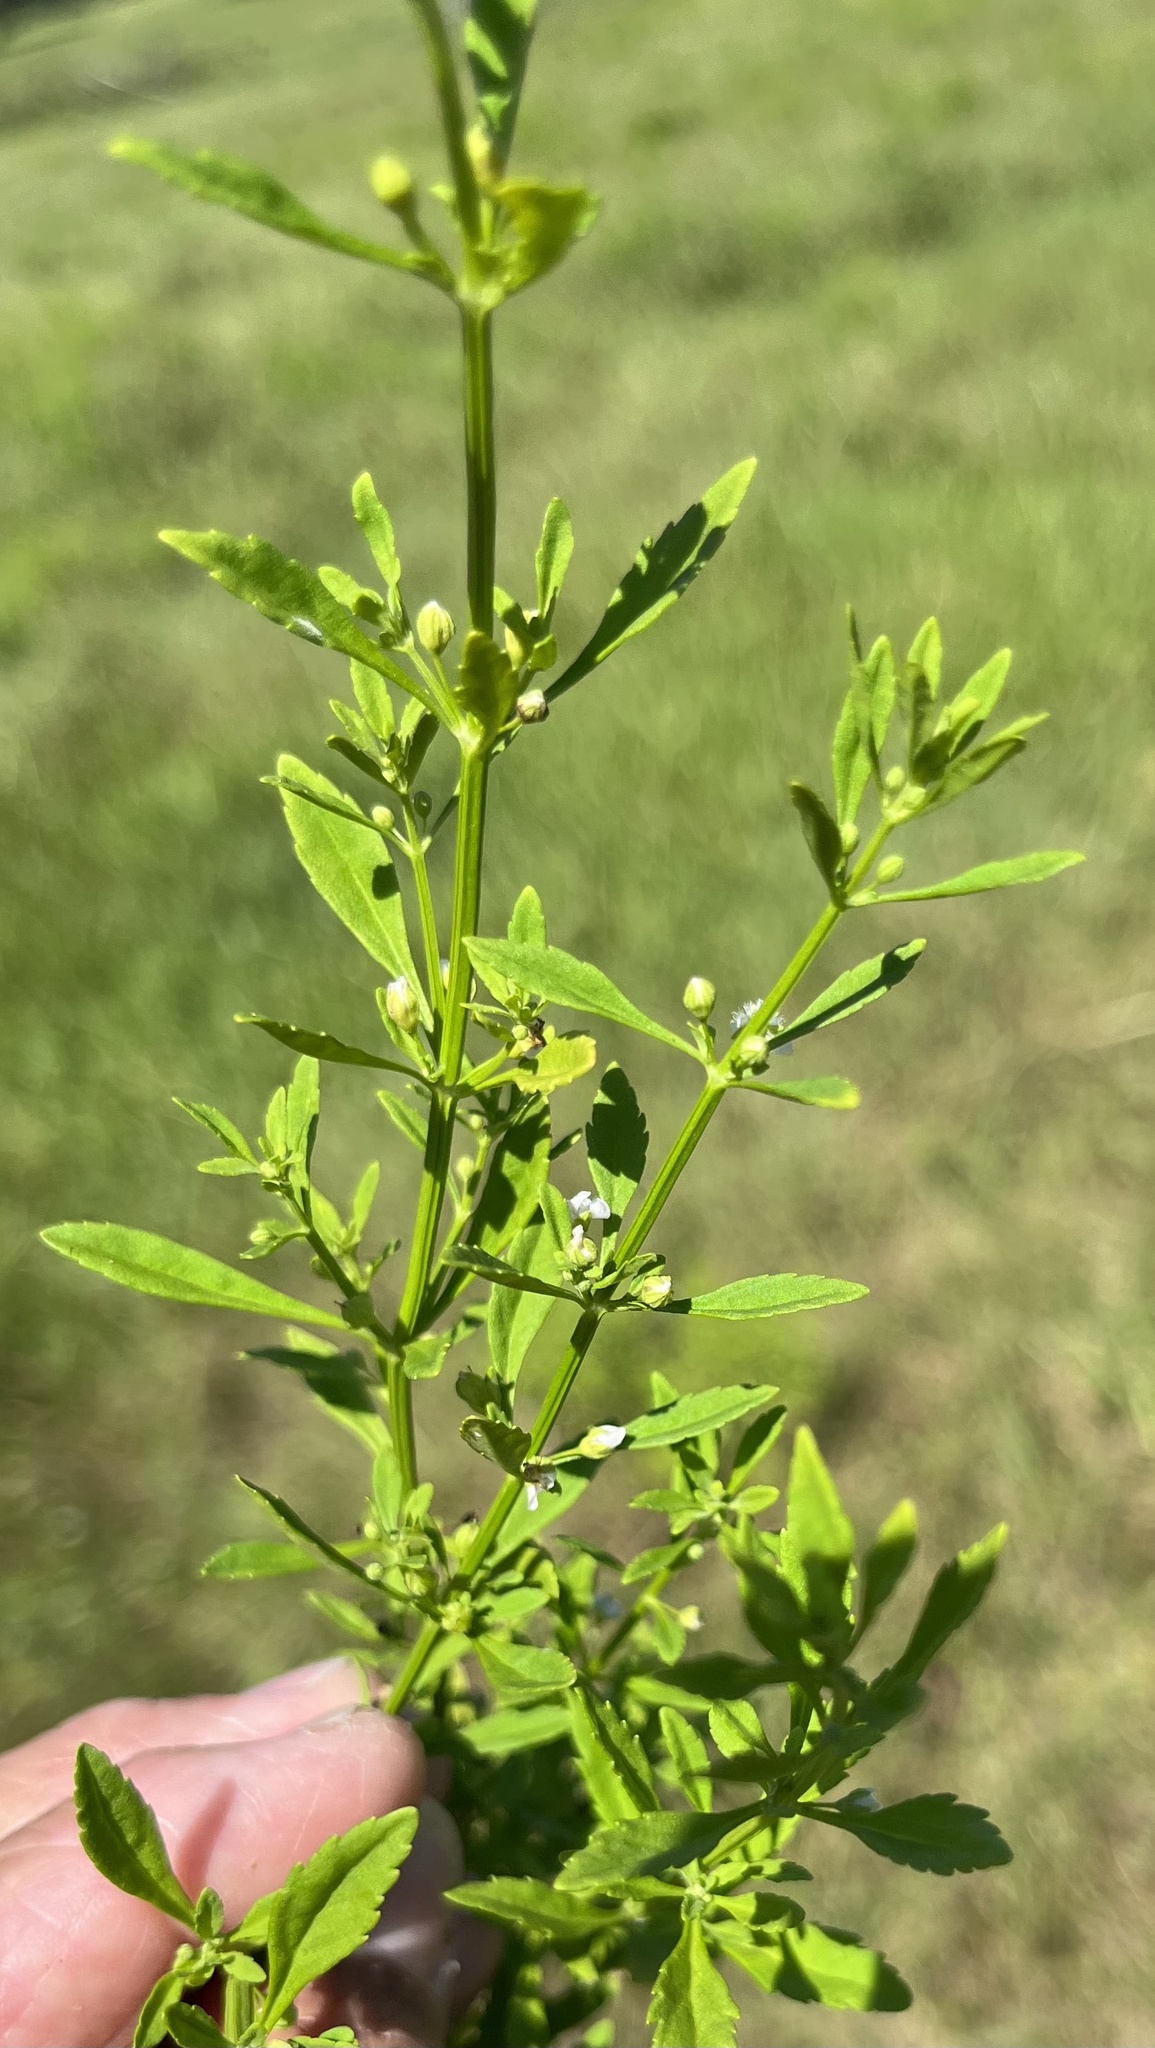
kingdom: Plantae
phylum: Tracheophyta
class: Magnoliopsida
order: Lamiales
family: Plantaginaceae
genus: Scoparia
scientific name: Scoparia dulcis
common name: Scoparia-weed
